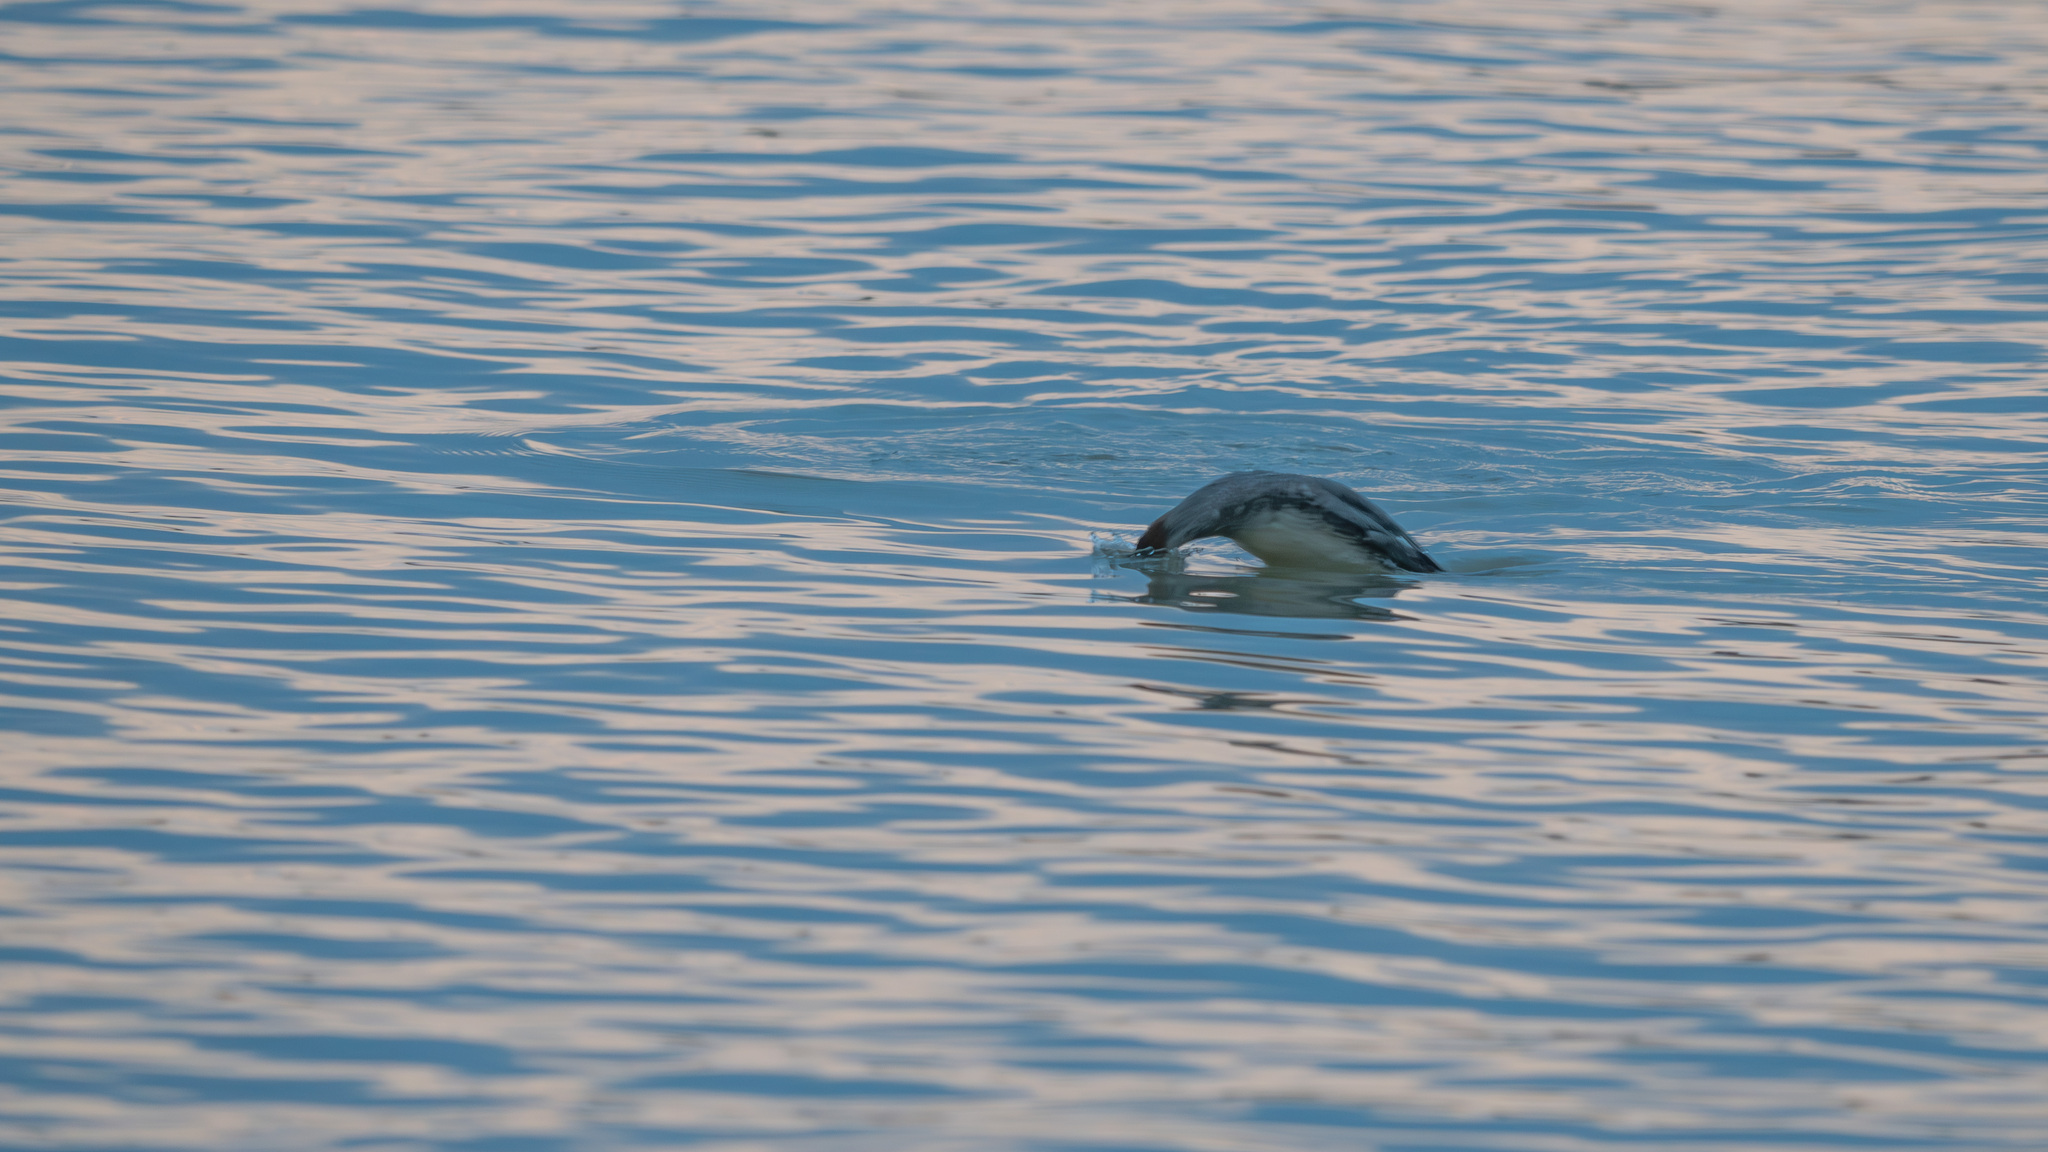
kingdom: Animalia
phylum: Chordata
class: Aves
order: Anseriformes
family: Anatidae
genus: Mergus
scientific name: Mergus merganser
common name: Common merganser
